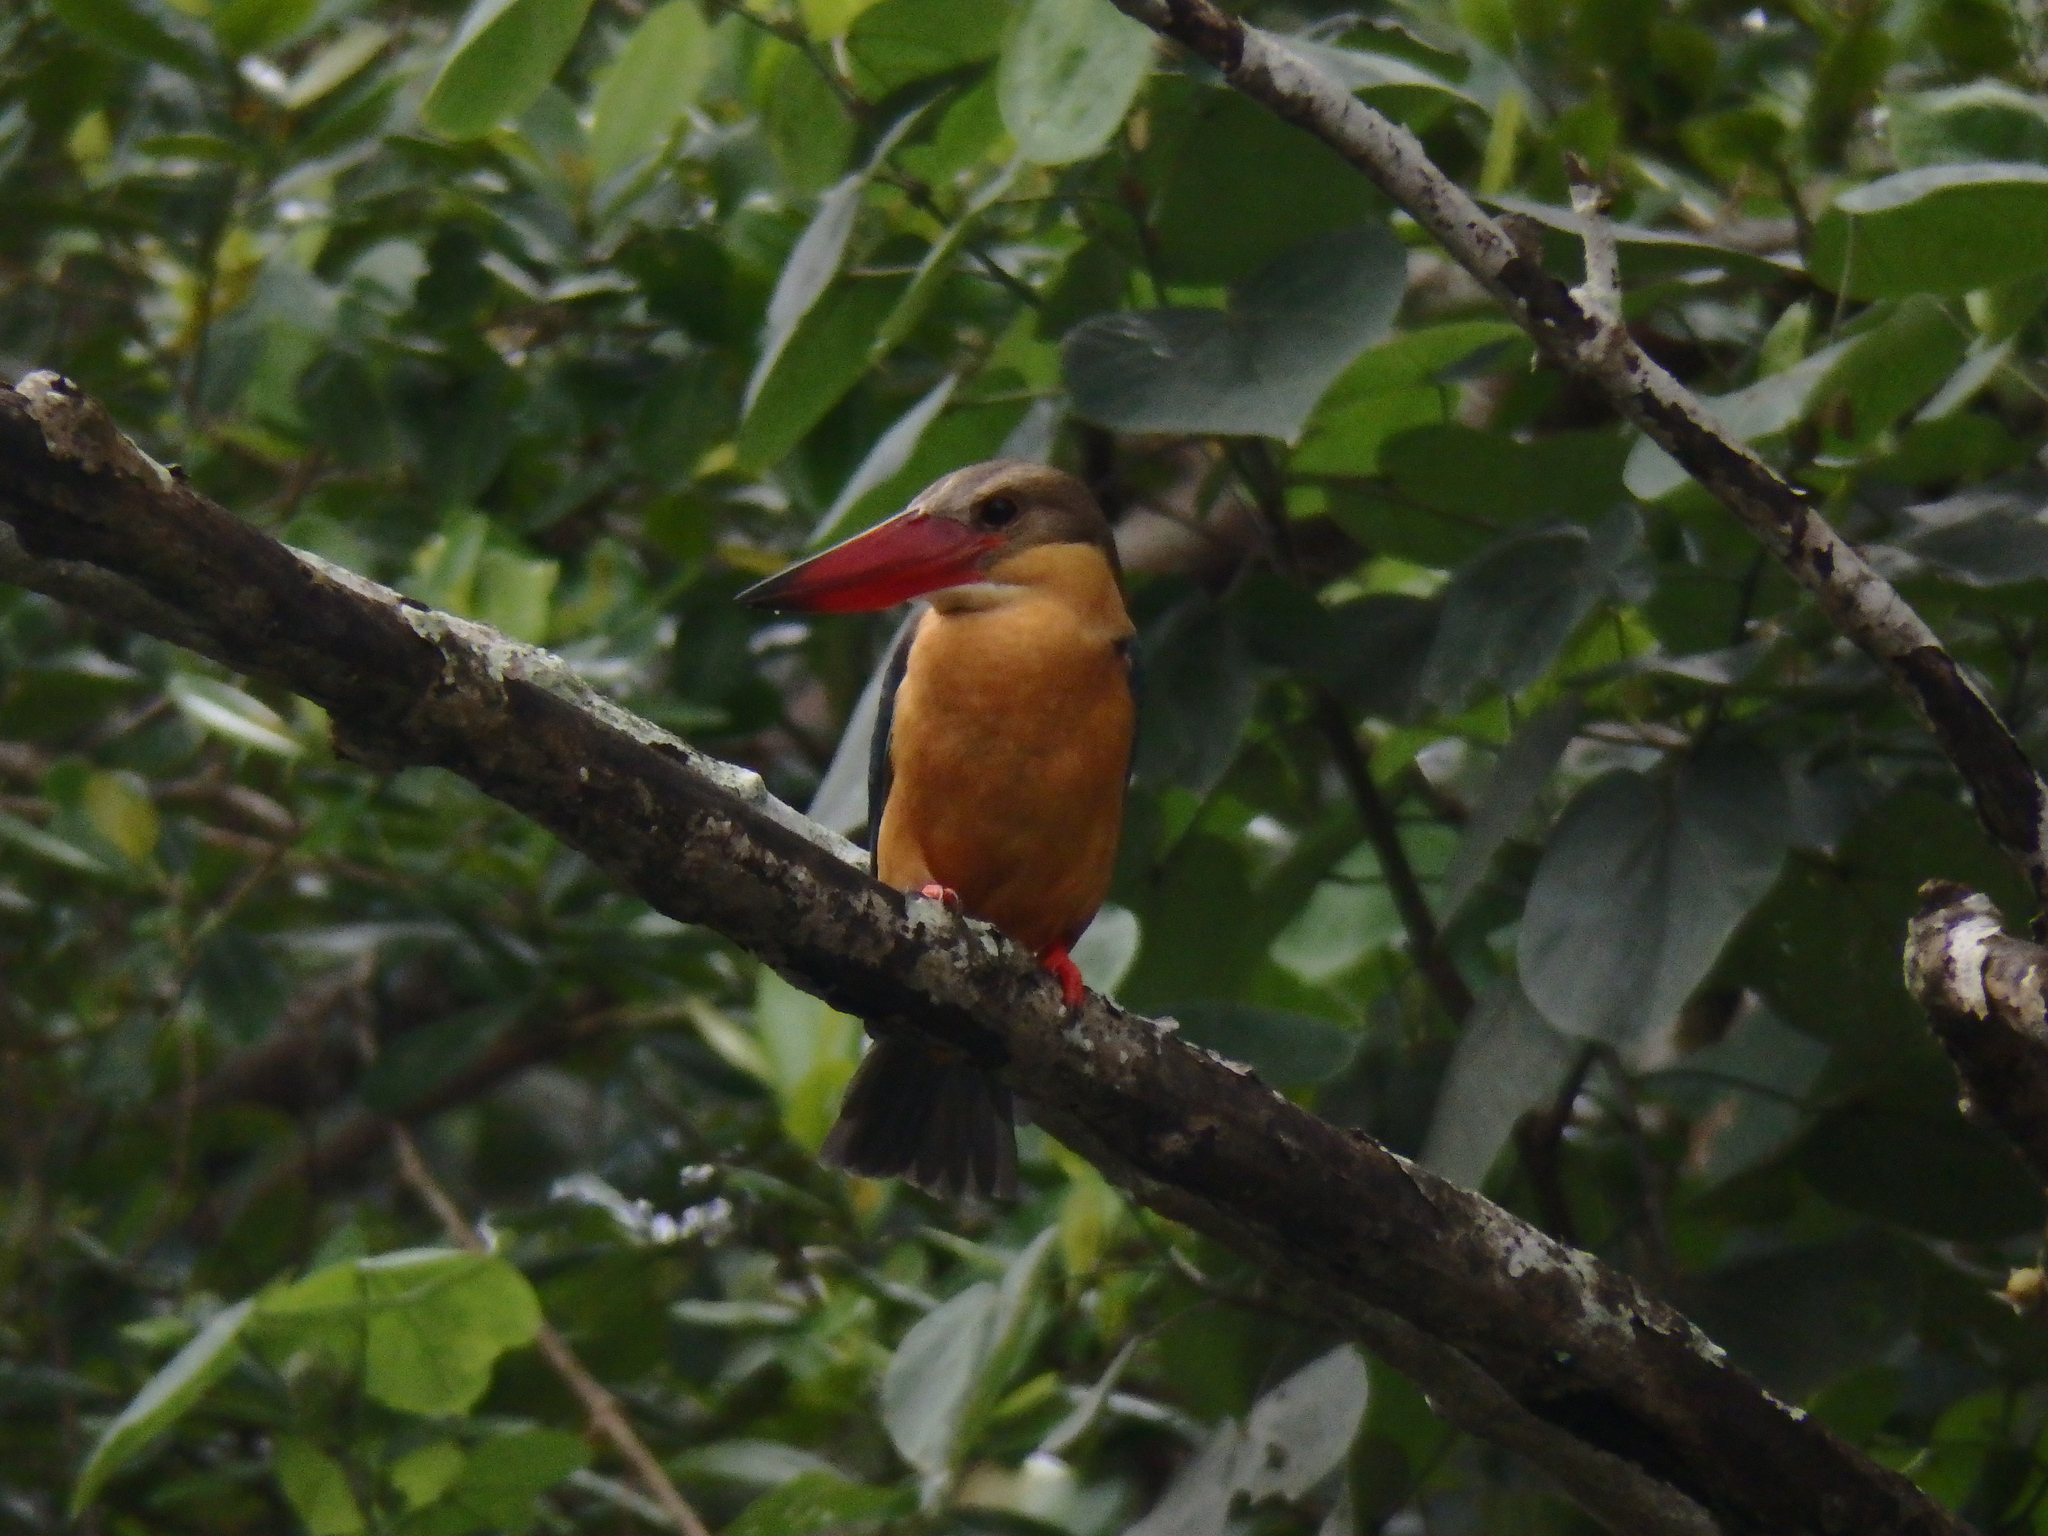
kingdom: Animalia
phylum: Chordata
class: Aves
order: Coraciiformes
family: Alcedinidae
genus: Pelargopsis
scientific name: Pelargopsis capensis
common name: Stork-billed kingfisher
